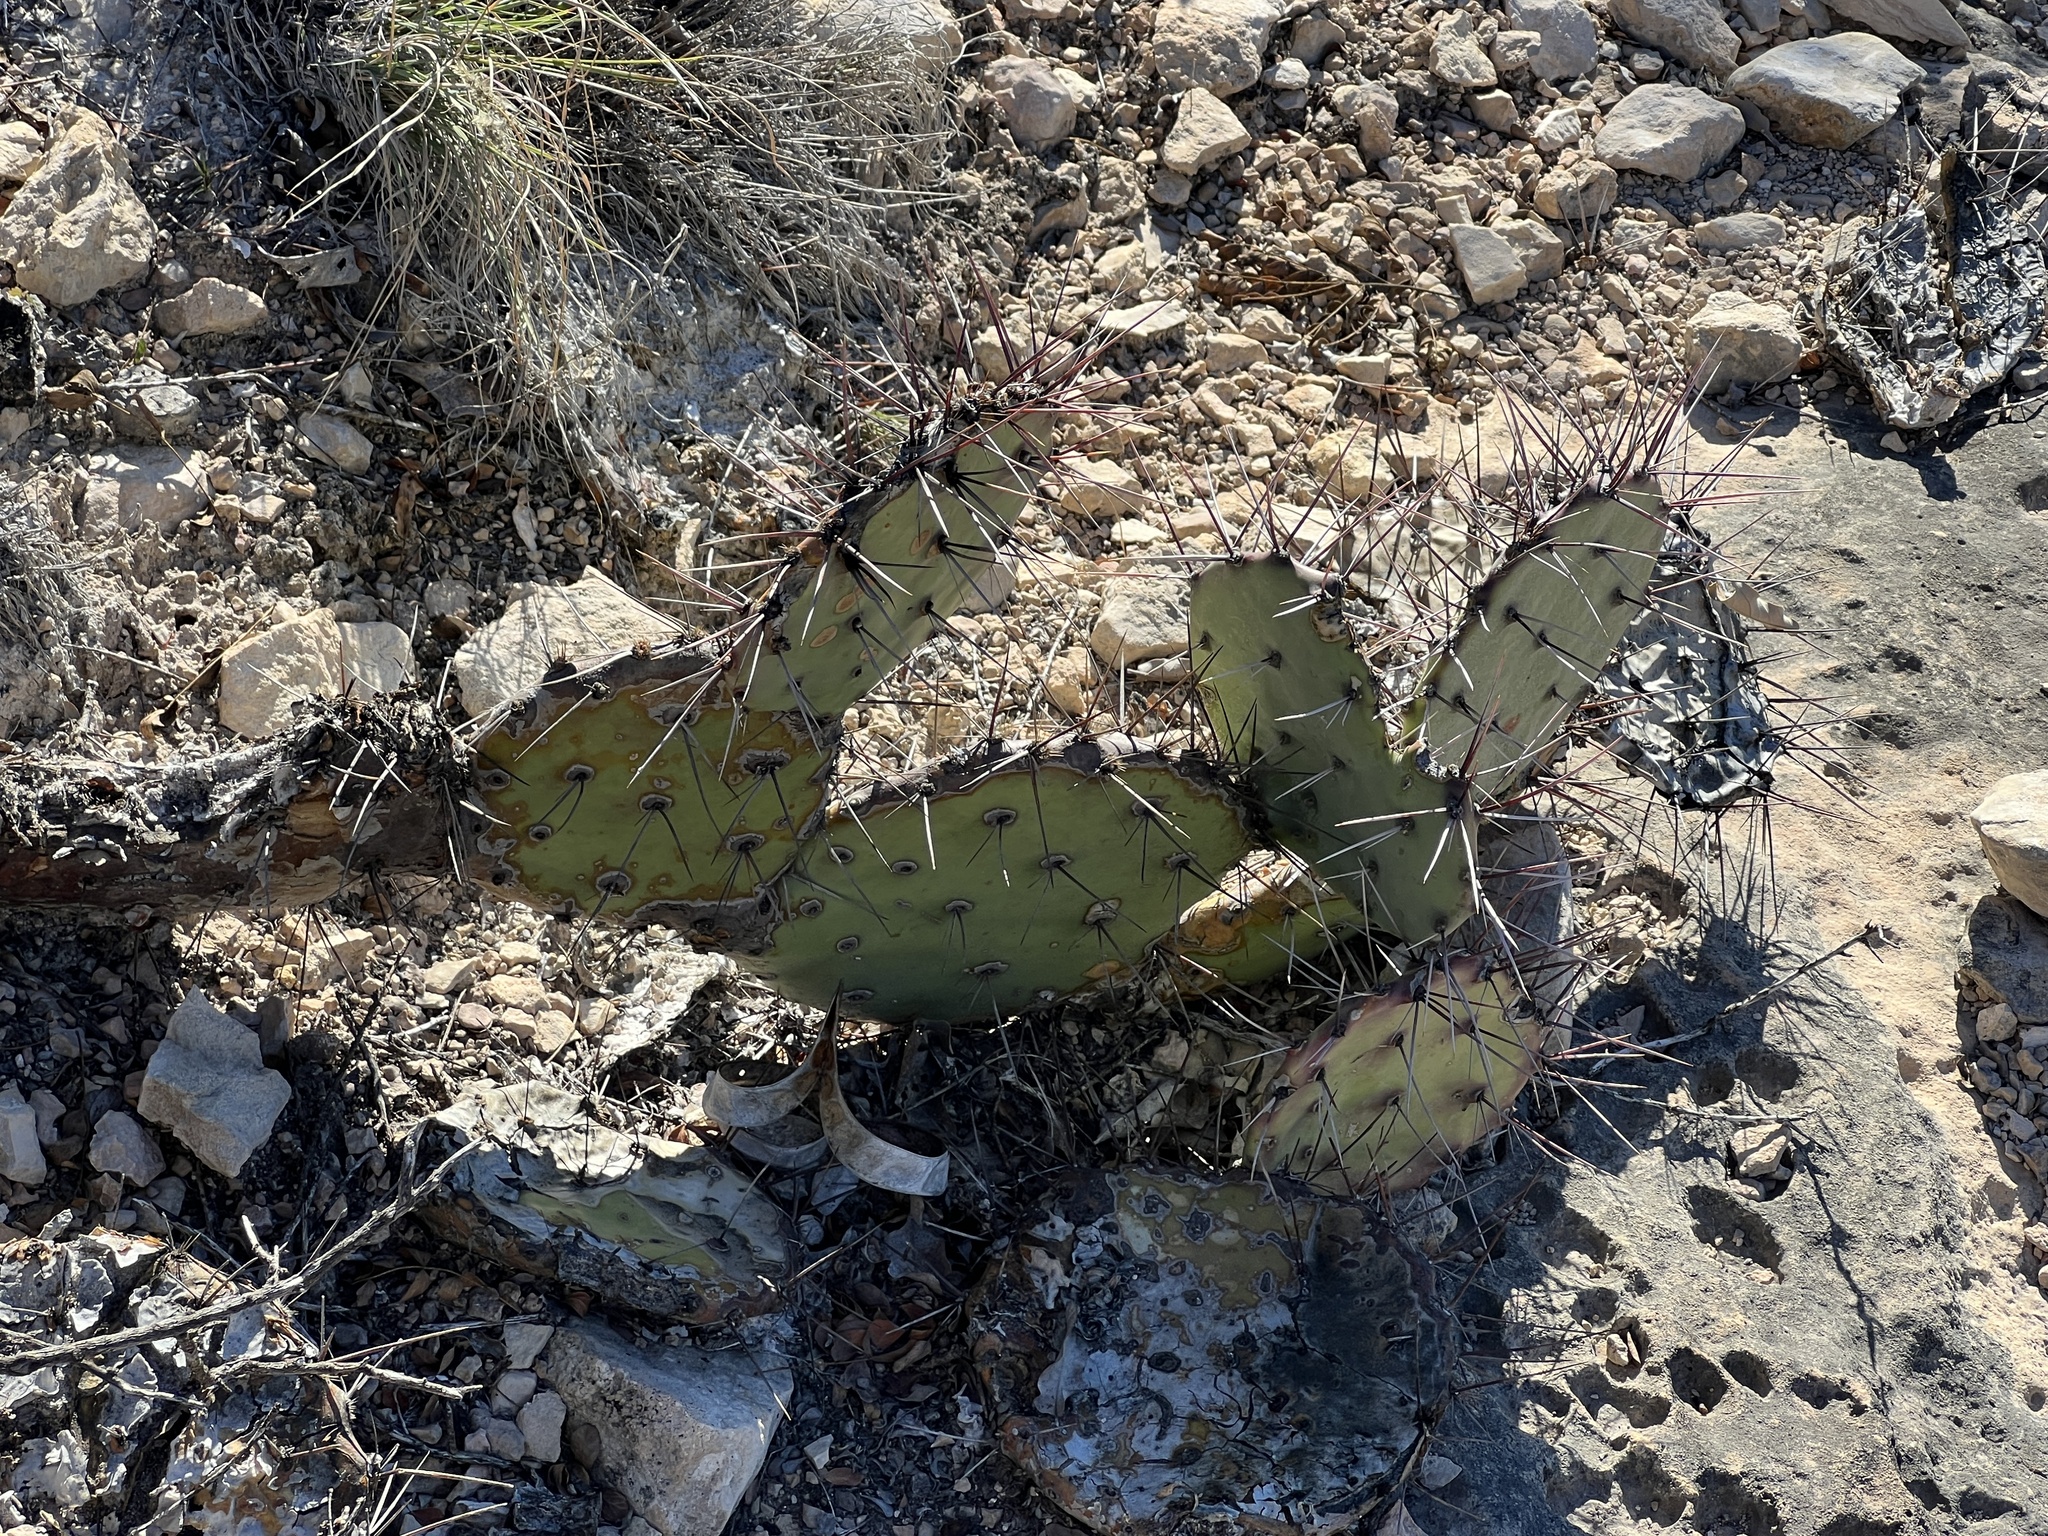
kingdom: Plantae
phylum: Tracheophyta
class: Magnoliopsida
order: Caryophyllales
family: Cactaceae
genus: Opuntia
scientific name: Opuntia phaeacantha
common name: New mexico prickly-pear
